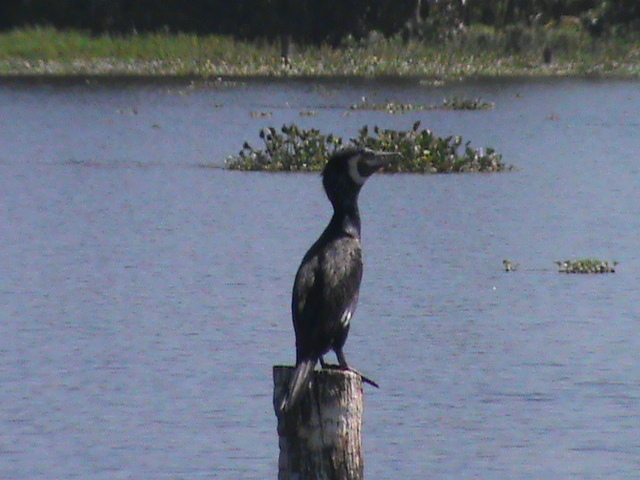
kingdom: Animalia
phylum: Chordata
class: Aves
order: Suliformes
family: Phalacrocoracidae
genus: Phalacrocorax
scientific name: Phalacrocorax carbo
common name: Great cormorant
